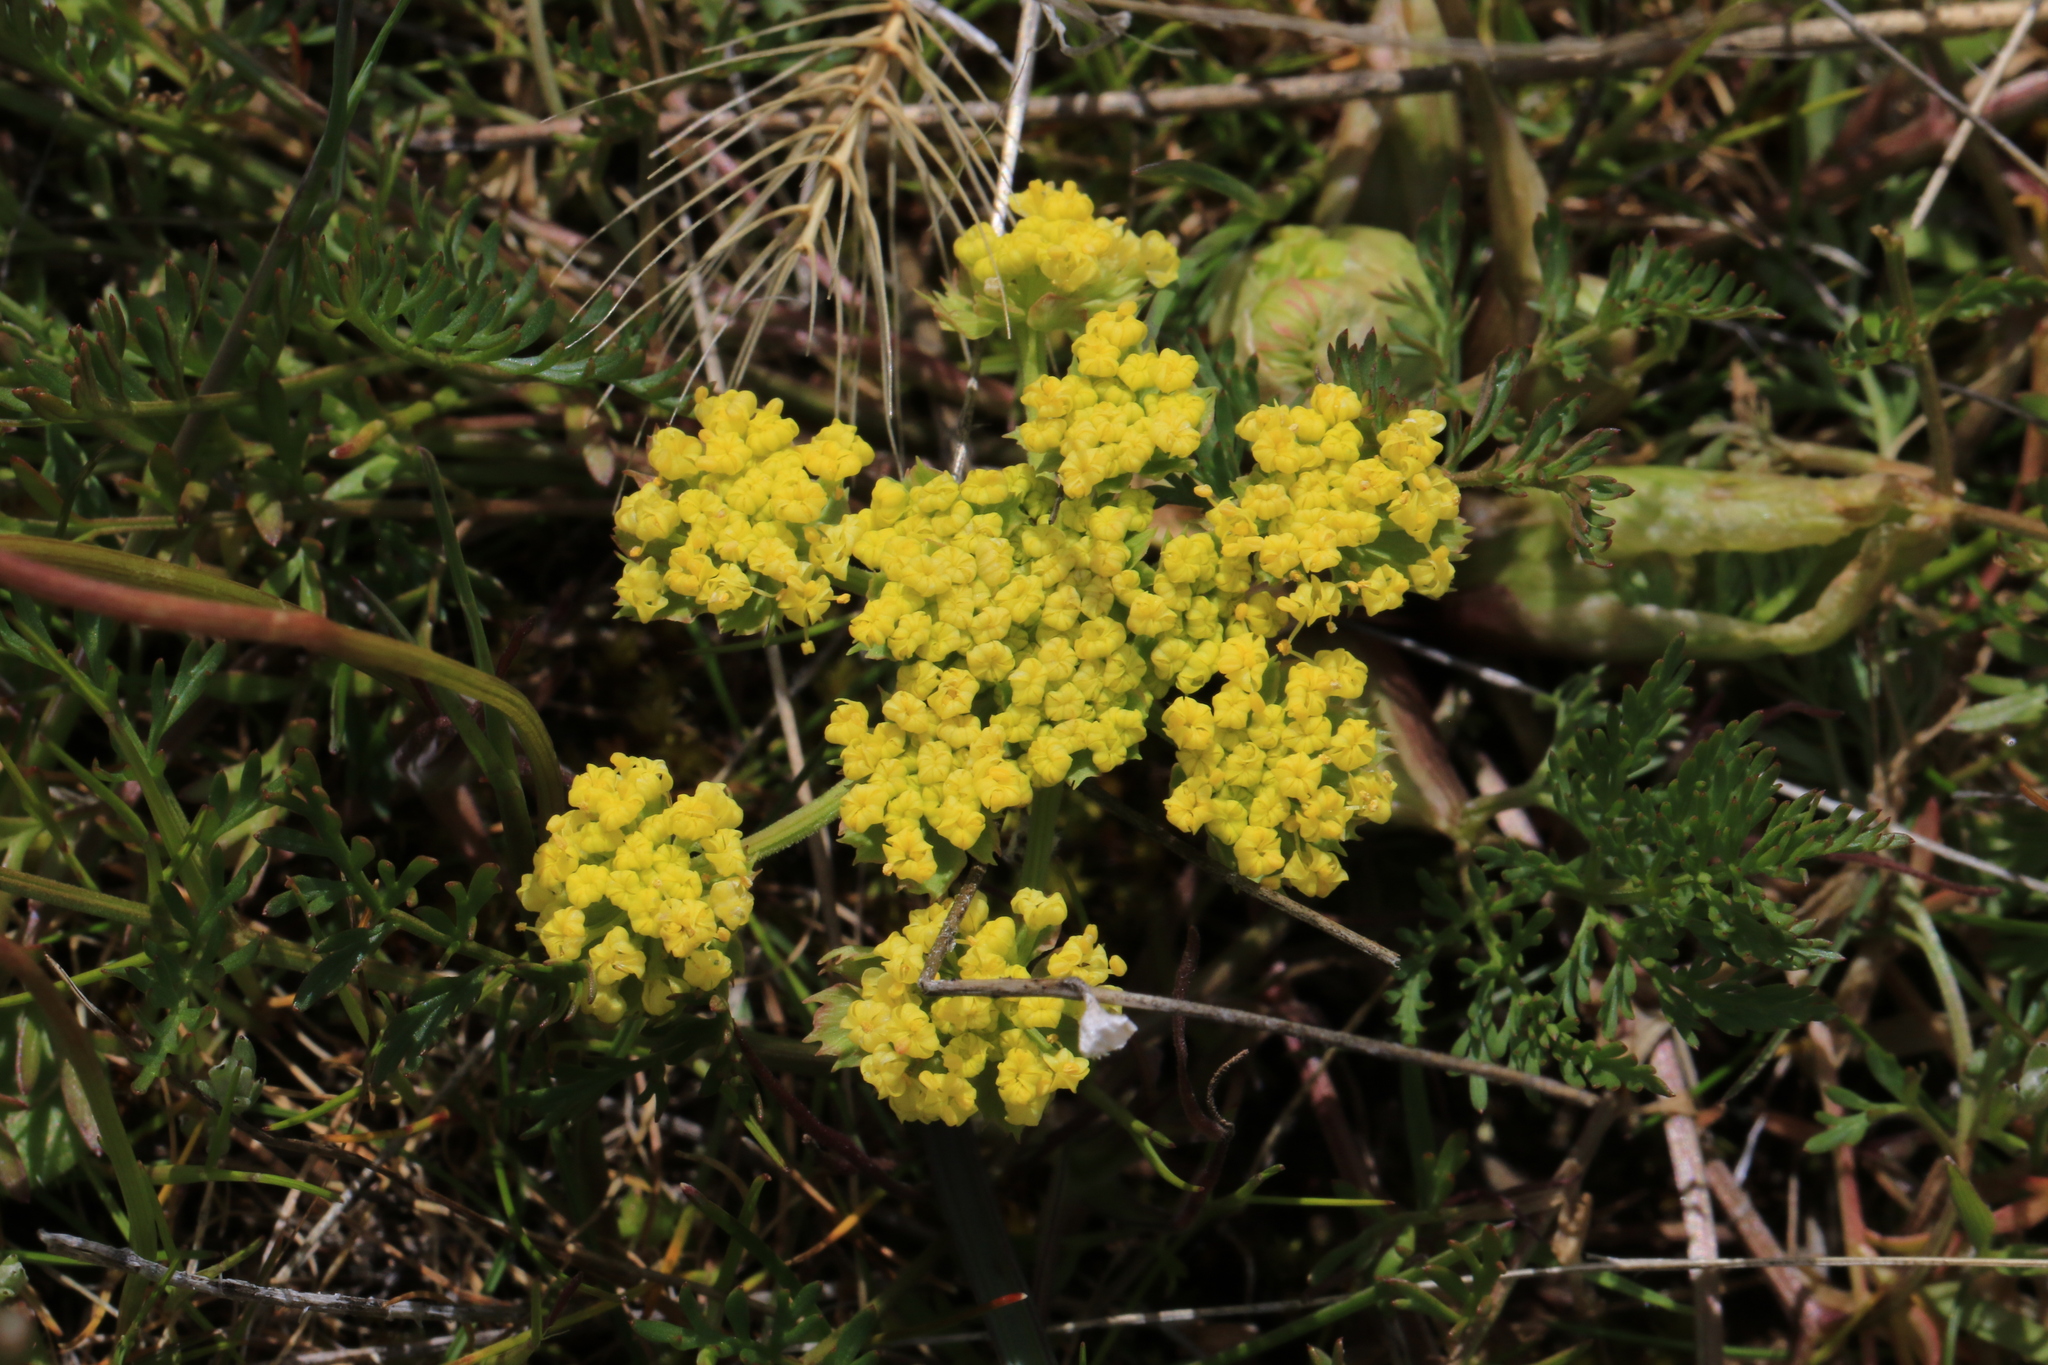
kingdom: Plantae
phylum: Tracheophyta
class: Magnoliopsida
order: Apiales
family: Apiaceae
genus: Lomatium
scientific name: Lomatium utriculatum
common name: Fine-leaf desert-parsley
